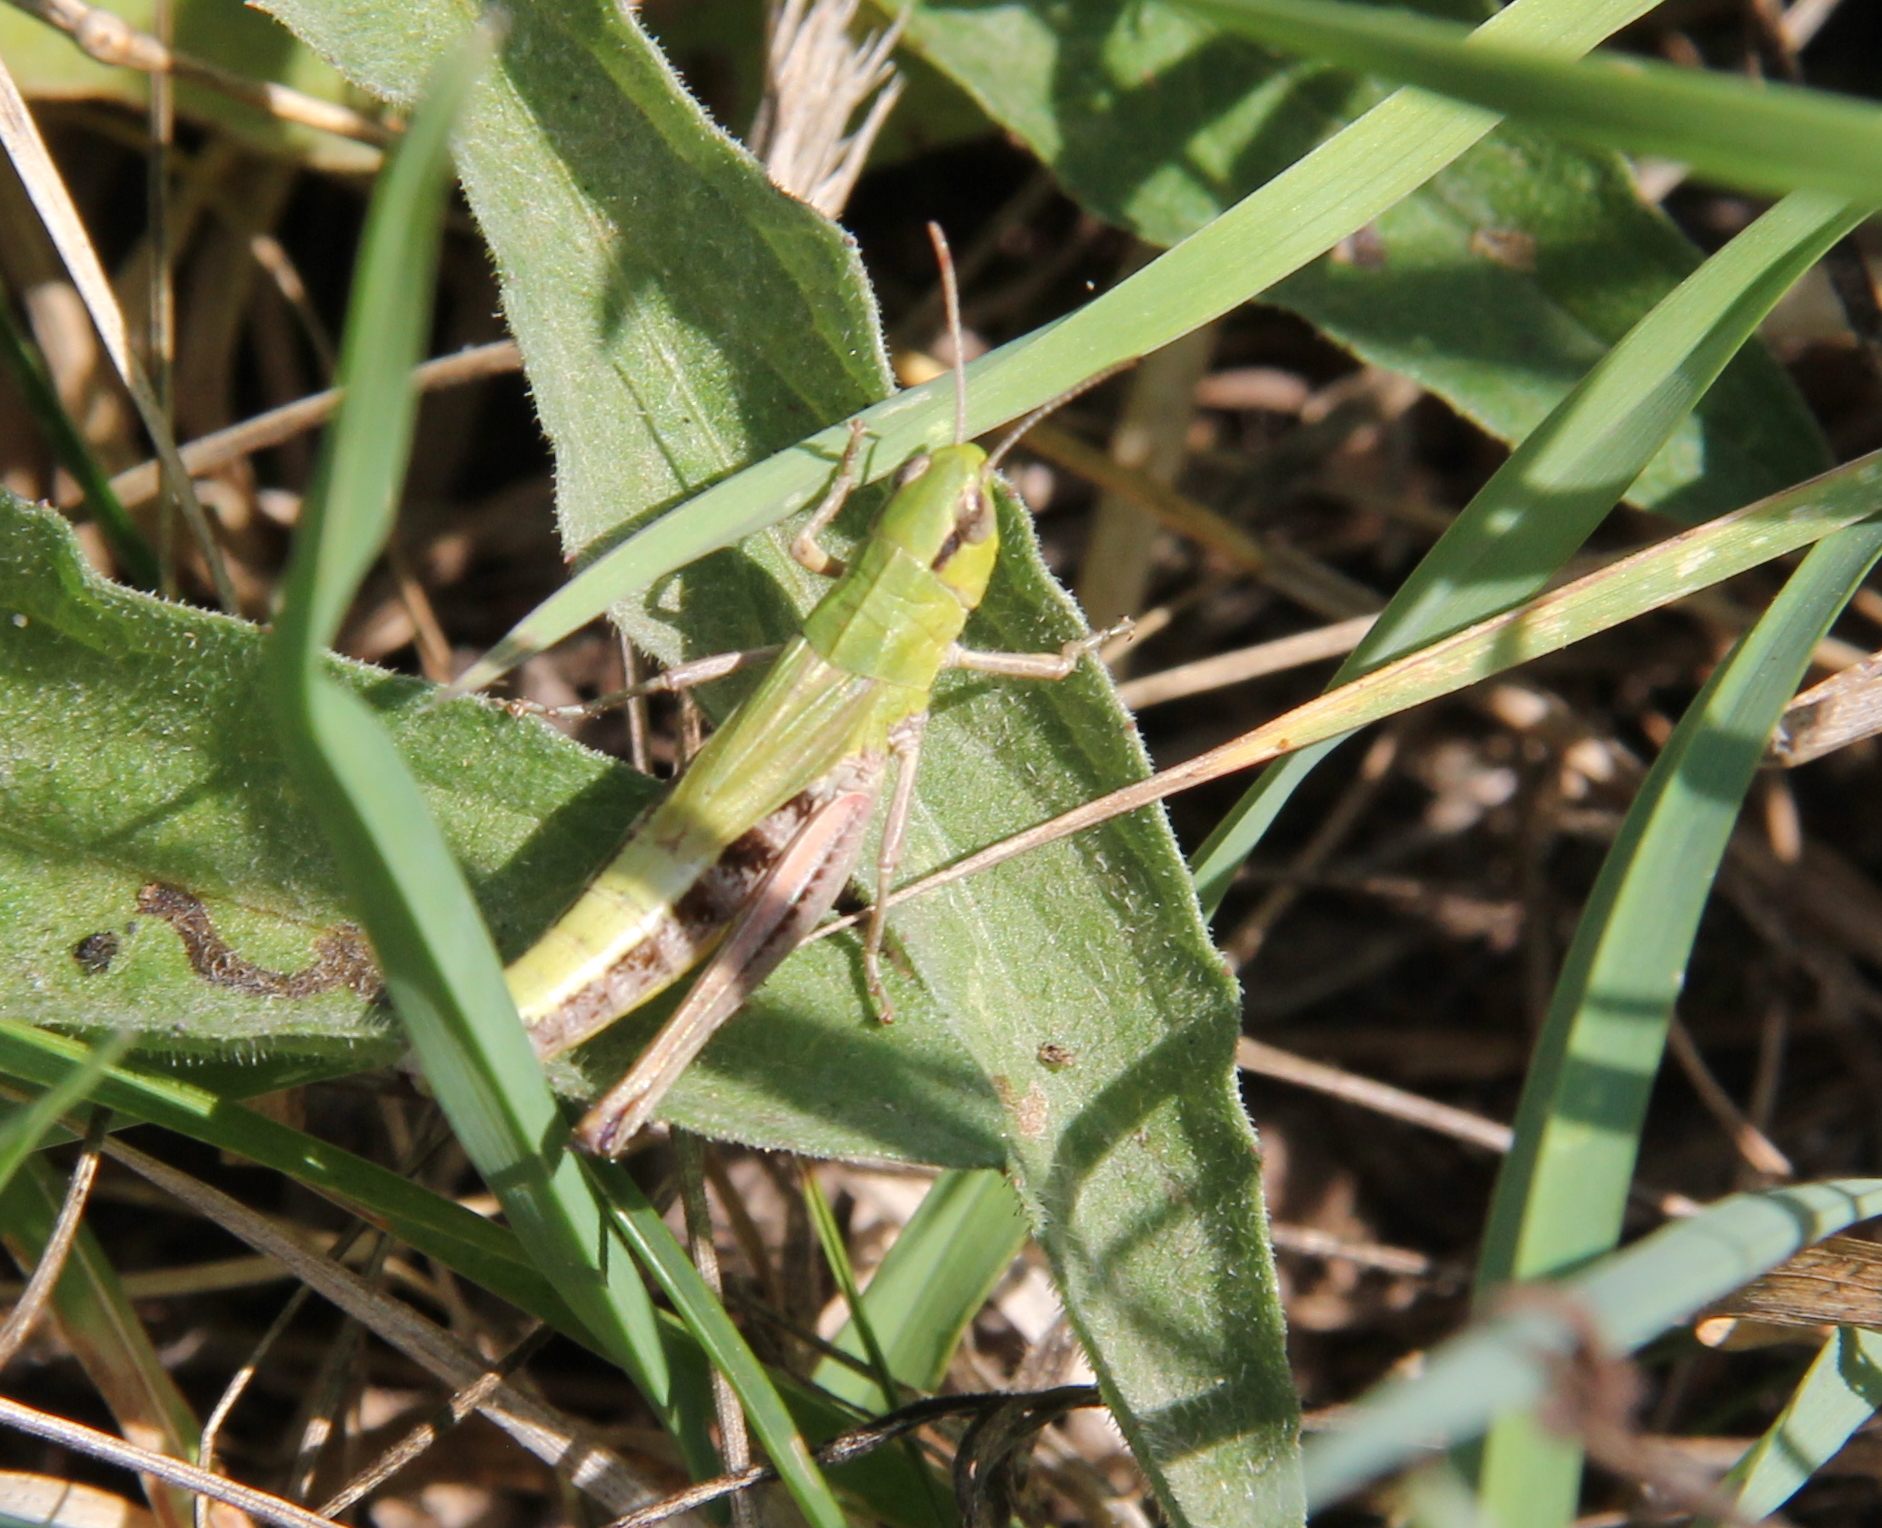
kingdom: Animalia
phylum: Arthropoda
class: Insecta
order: Orthoptera
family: Acrididae
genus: Pseudochorthippus
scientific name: Pseudochorthippus parallelus
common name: Meadow grasshopper
